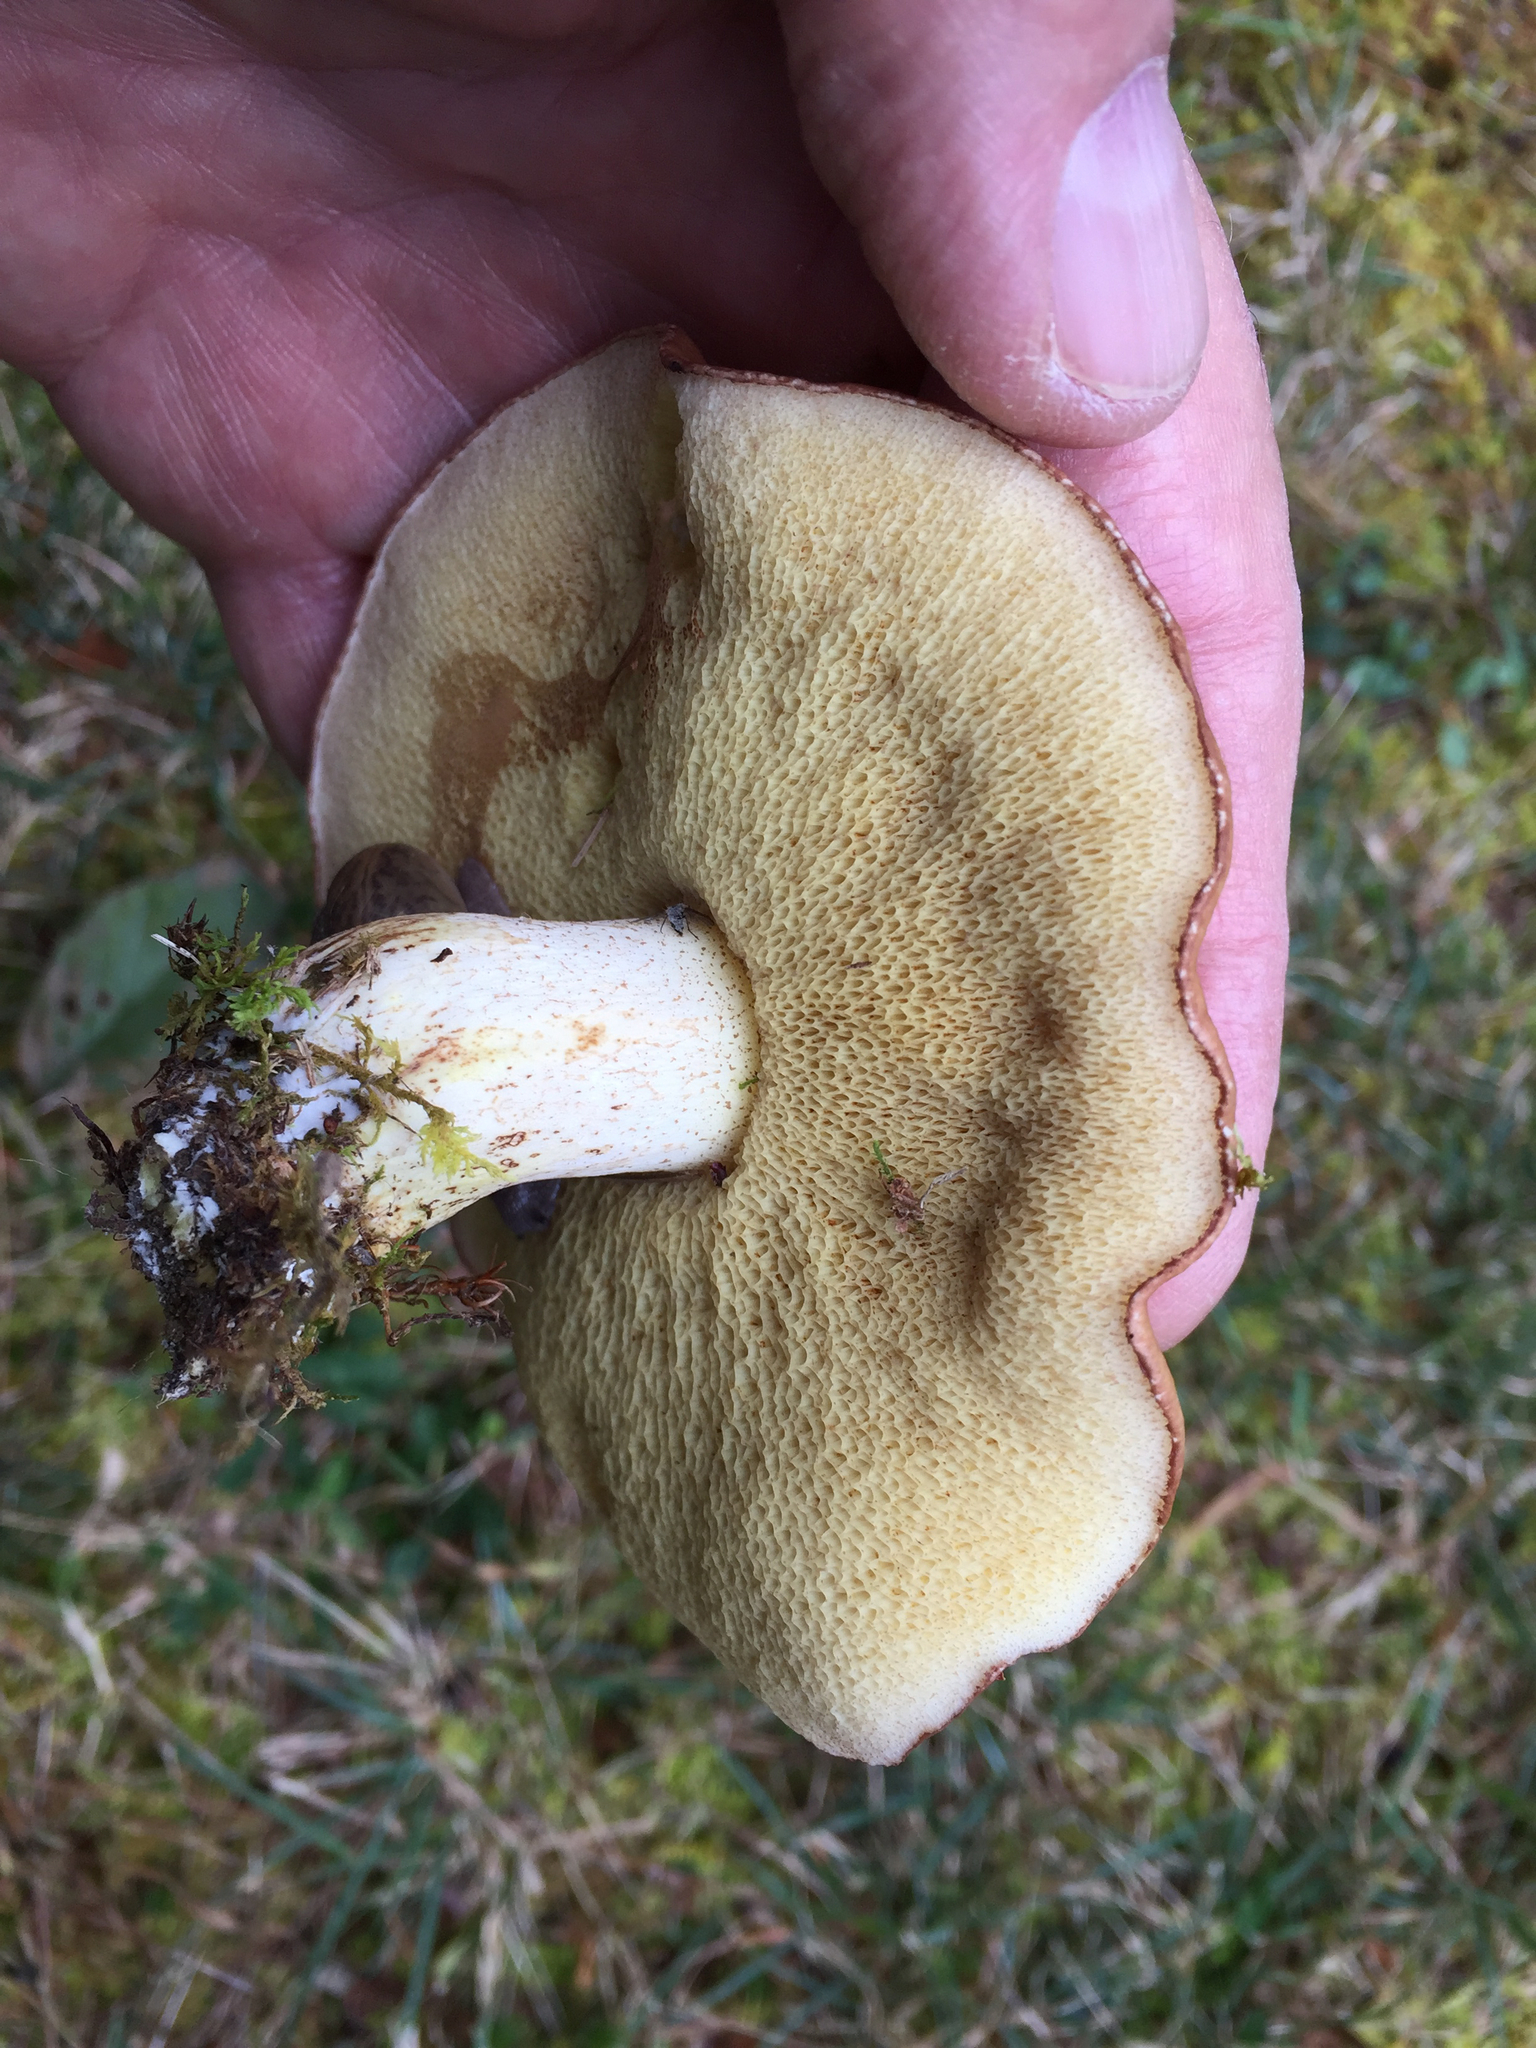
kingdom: Fungi
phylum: Basidiomycota
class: Agaricomycetes
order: Boletales
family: Suillaceae
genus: Suillus
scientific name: Suillus granulatus
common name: Weeping bolete
